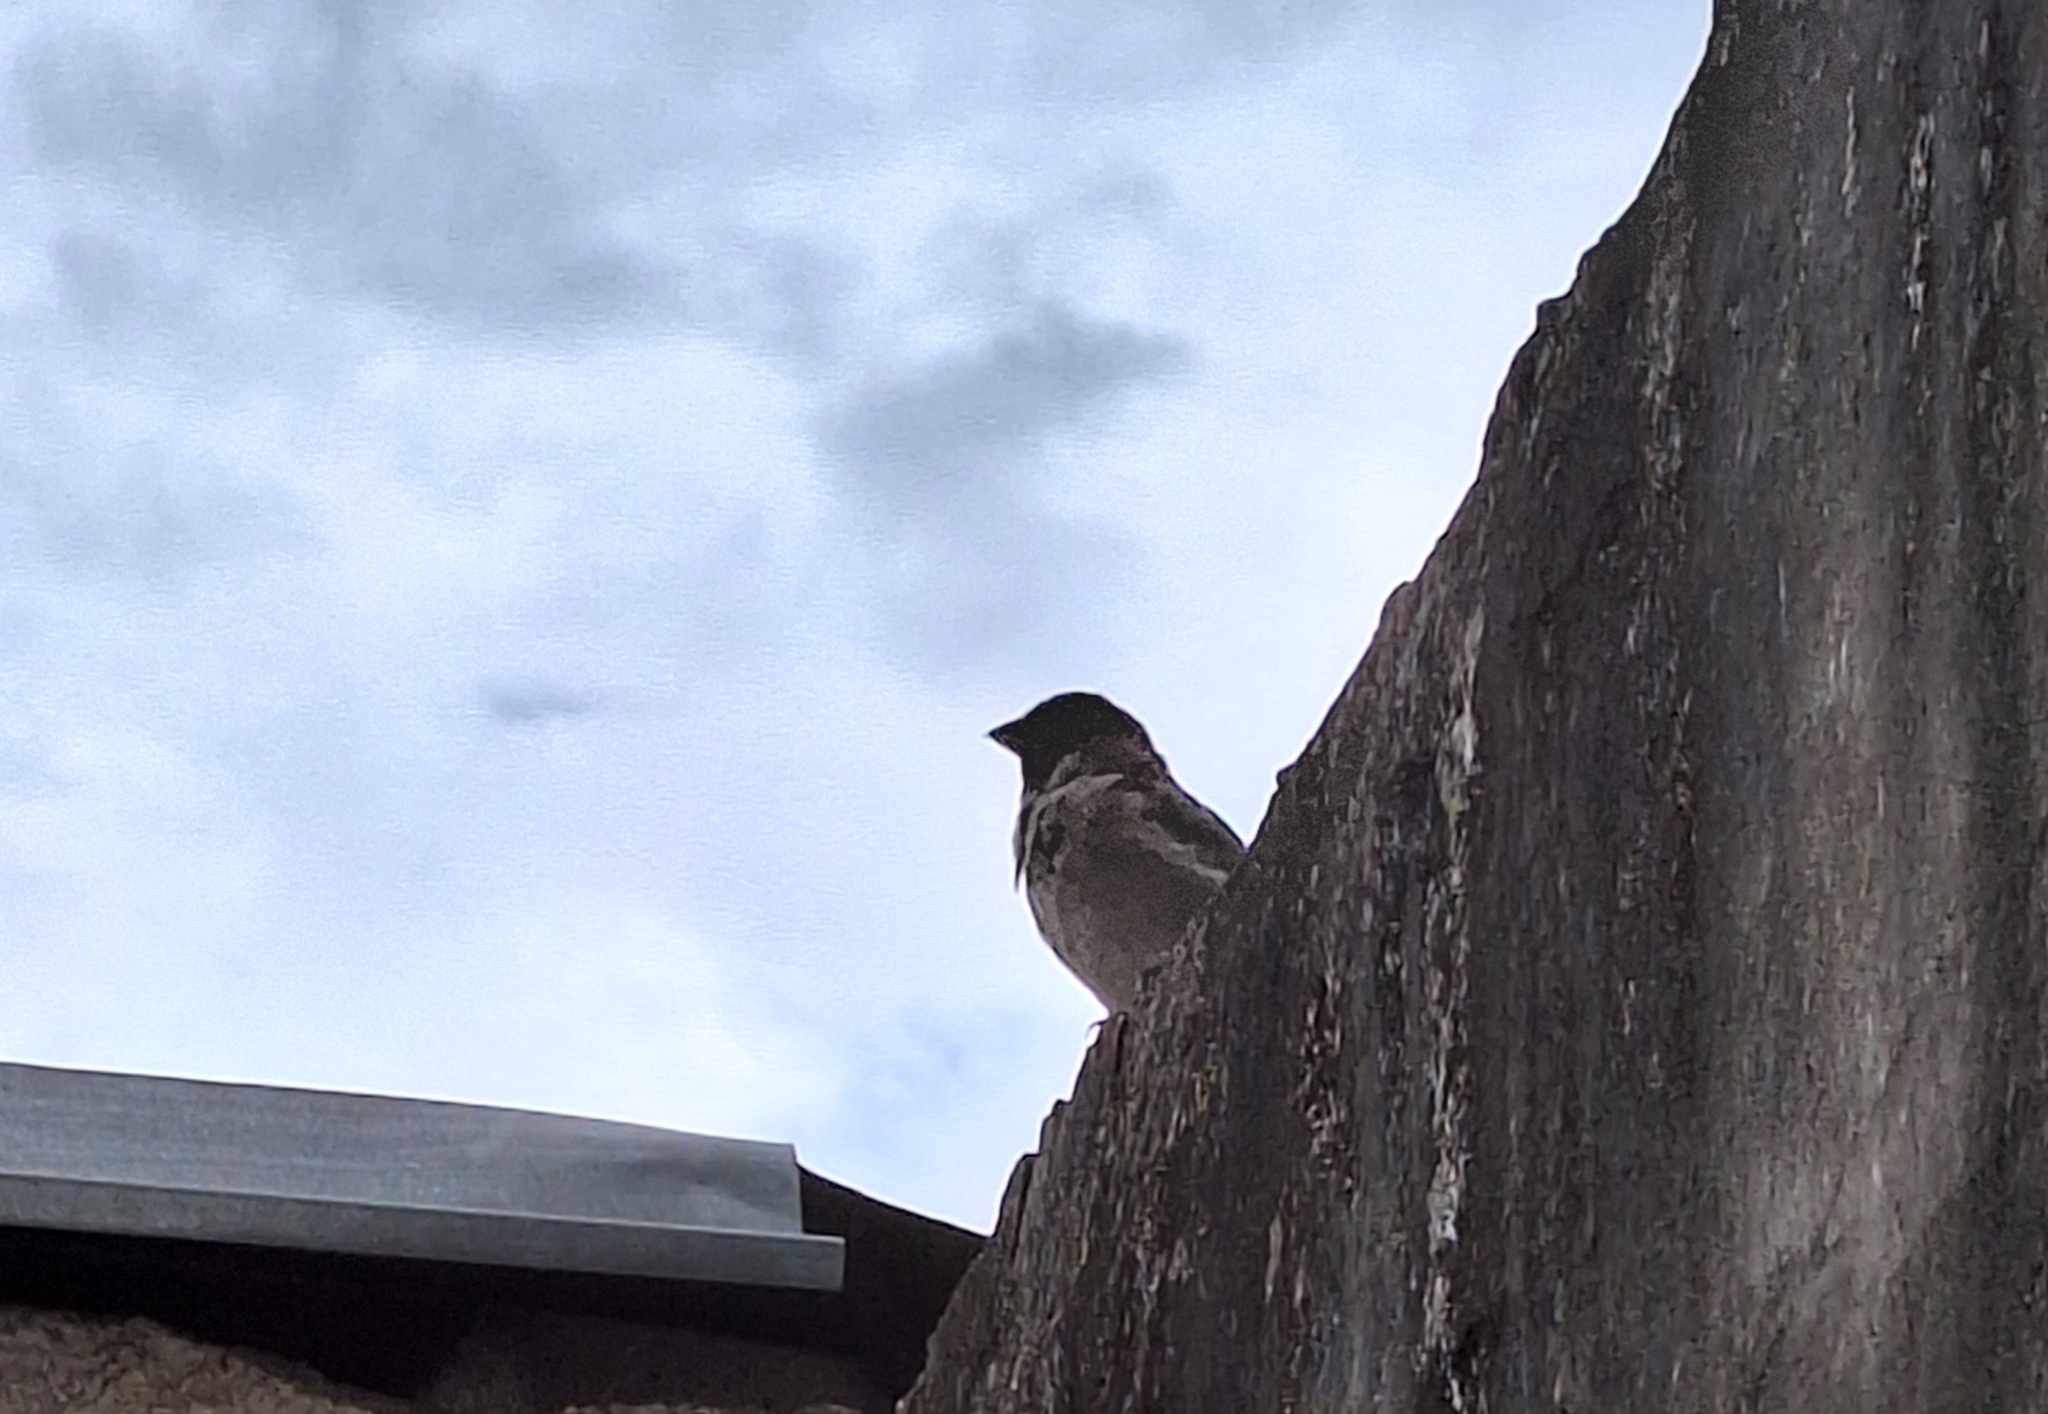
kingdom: Animalia
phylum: Chordata
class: Aves
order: Passeriformes
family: Passeridae
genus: Passer
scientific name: Passer domesticus
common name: House sparrow
